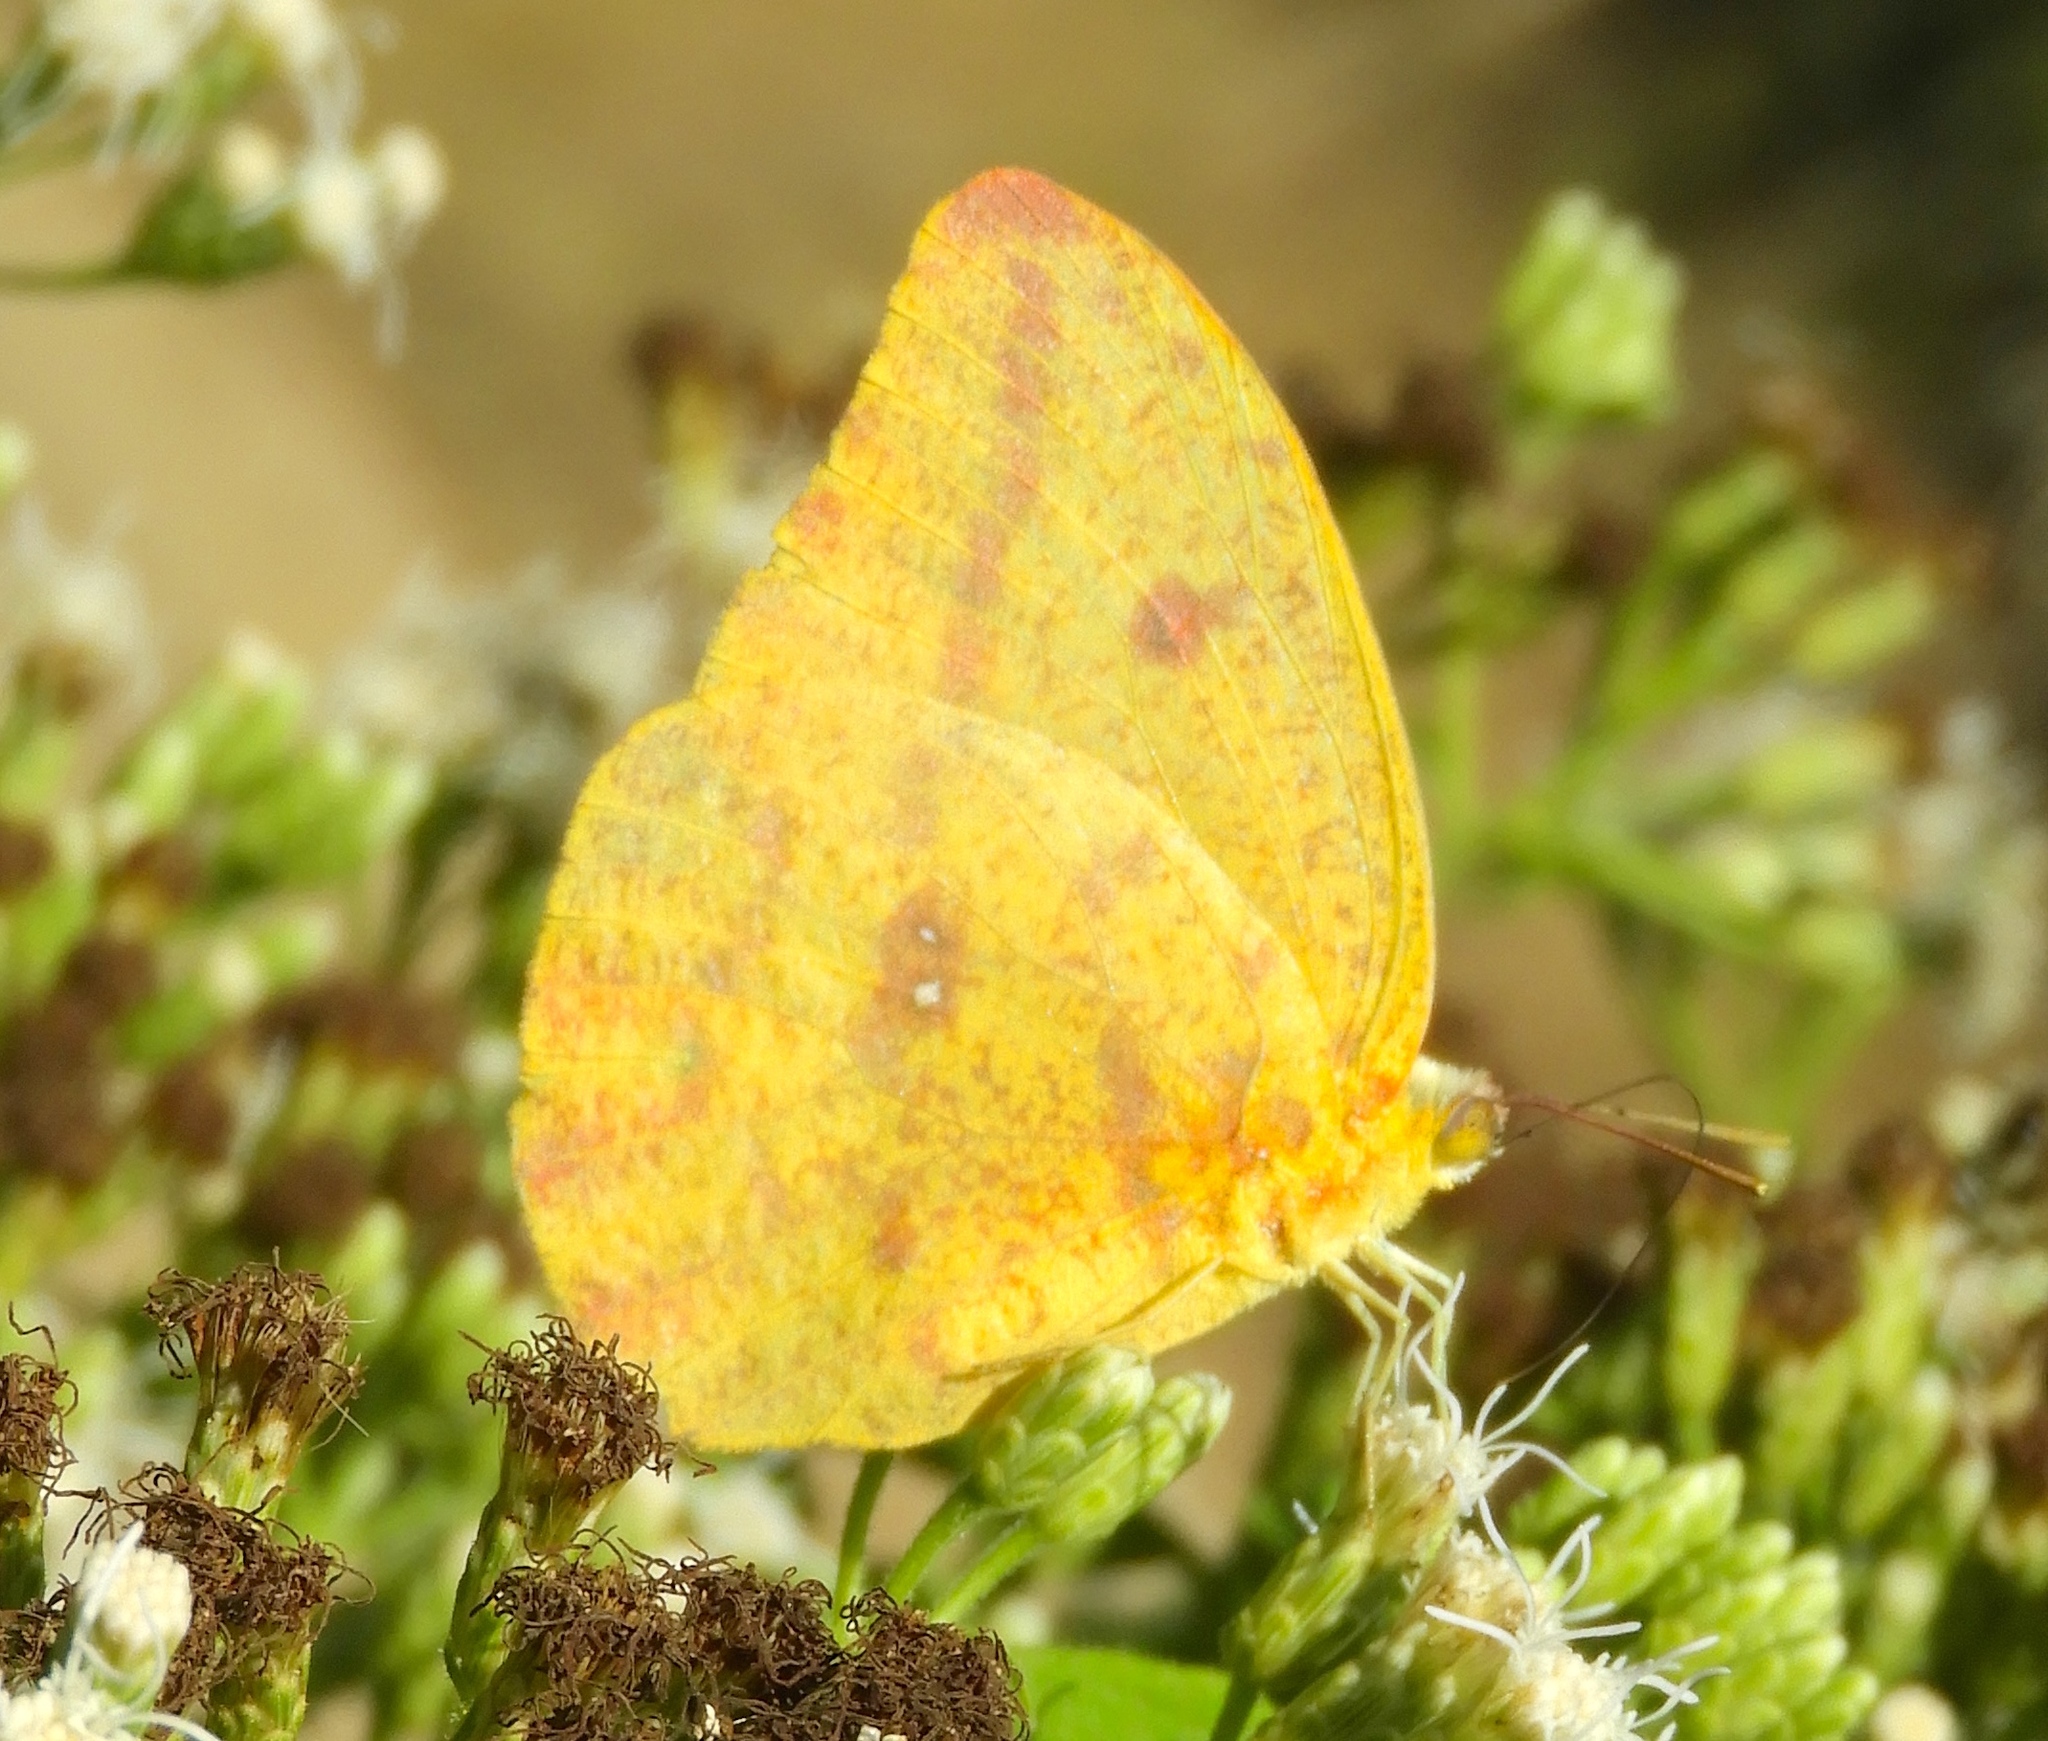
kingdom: Animalia
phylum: Arthropoda
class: Insecta
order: Lepidoptera
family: Pieridae
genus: Phoebis
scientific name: Phoebis agarithe
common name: Large orange sulphur
